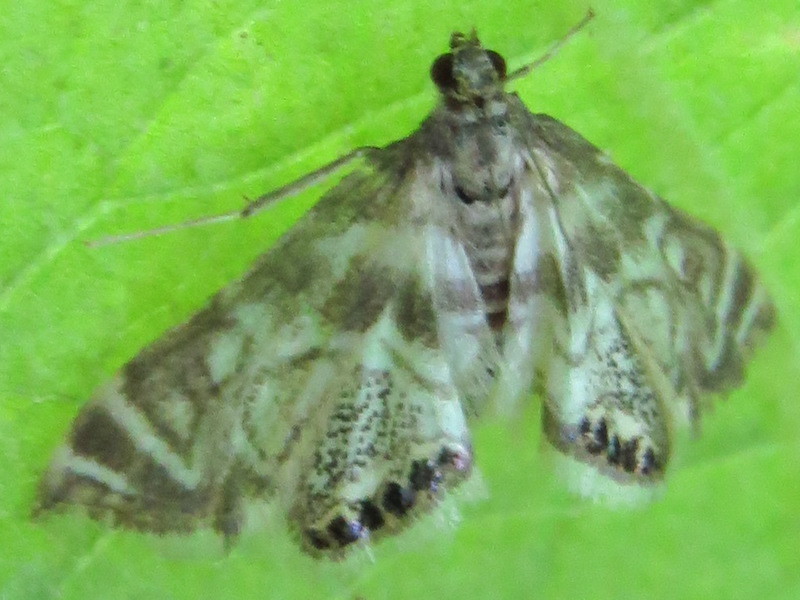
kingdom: Animalia
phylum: Arthropoda
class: Insecta
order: Lepidoptera
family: Crambidae
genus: Petrophila
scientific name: Petrophila canadensis
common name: Canadian petrophila
